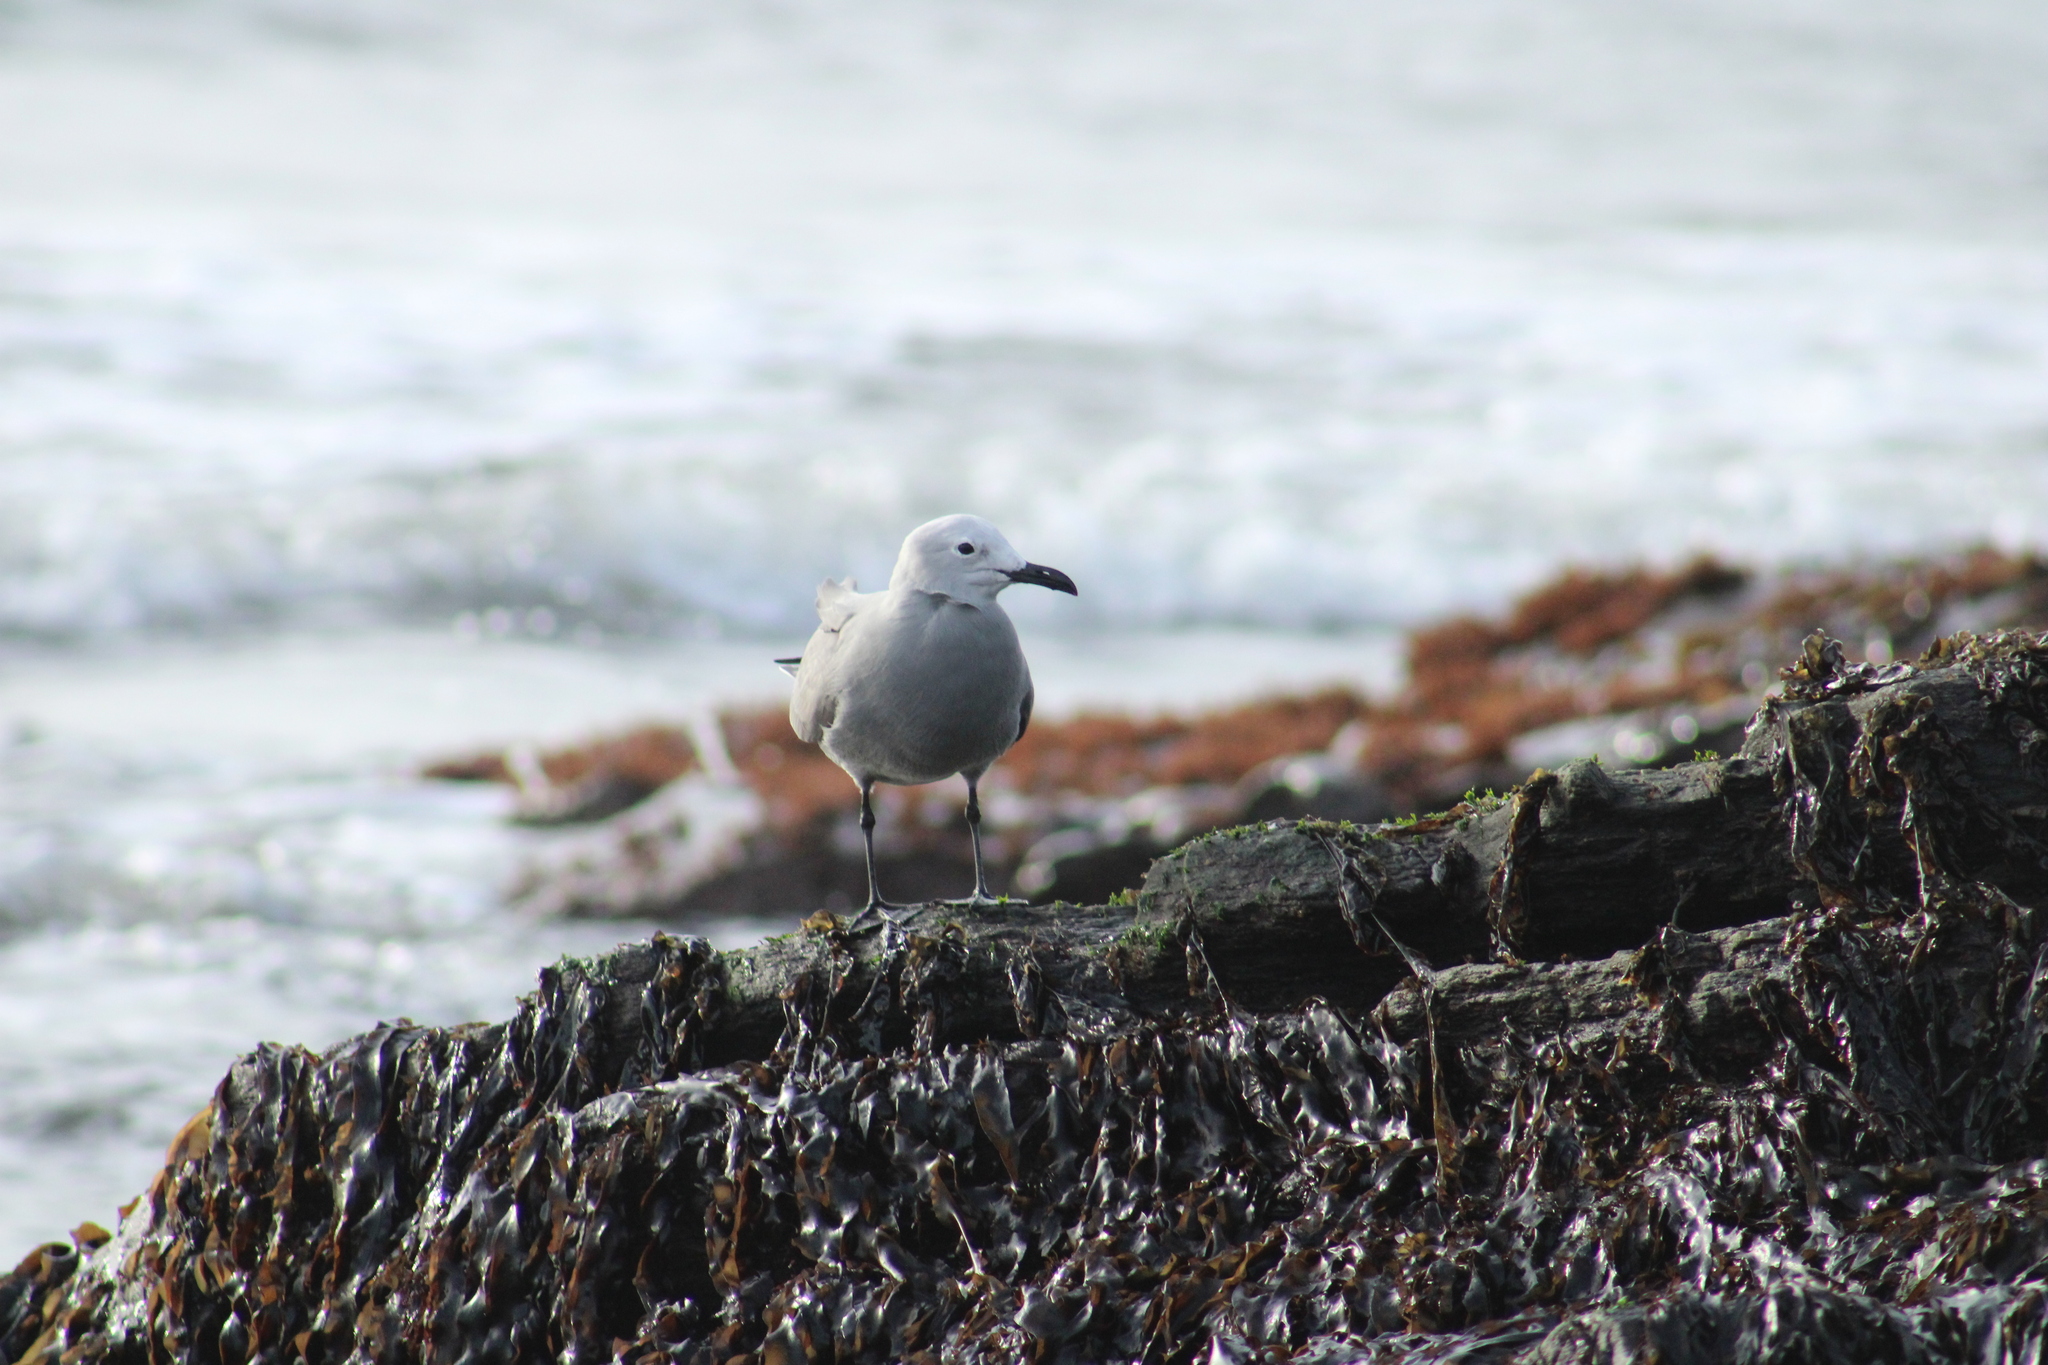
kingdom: Animalia
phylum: Chordata
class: Aves
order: Charadriiformes
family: Laridae
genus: Leucophaeus
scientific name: Leucophaeus modestus
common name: Gray gull
